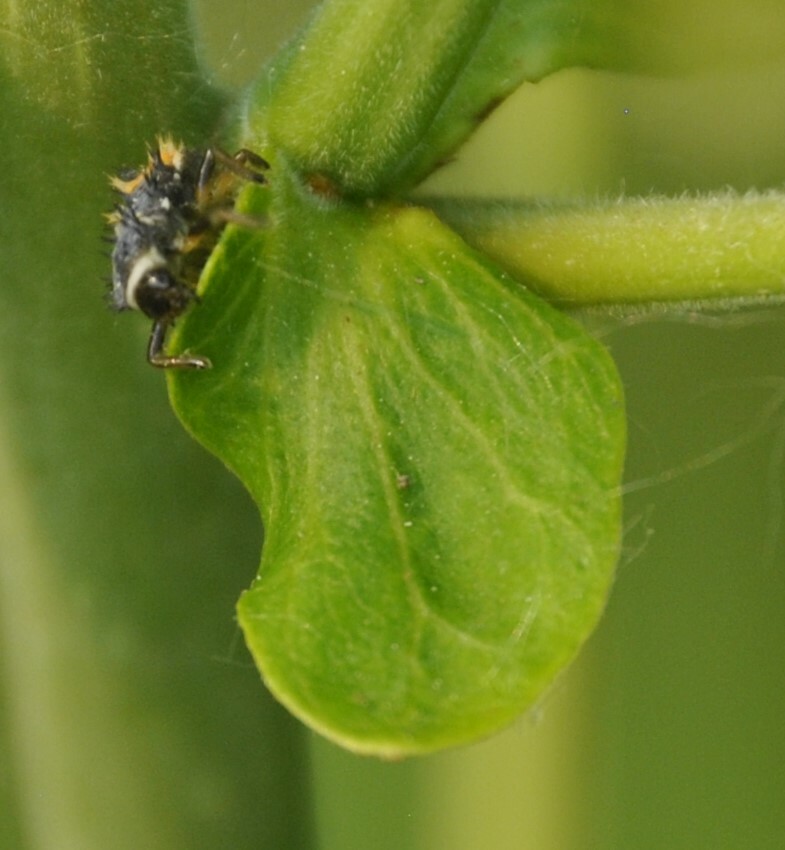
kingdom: Animalia
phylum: Arthropoda
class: Insecta
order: Coleoptera
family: Coccinellidae
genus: Harmonia
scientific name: Harmonia axyridis
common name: Harlequin ladybird
